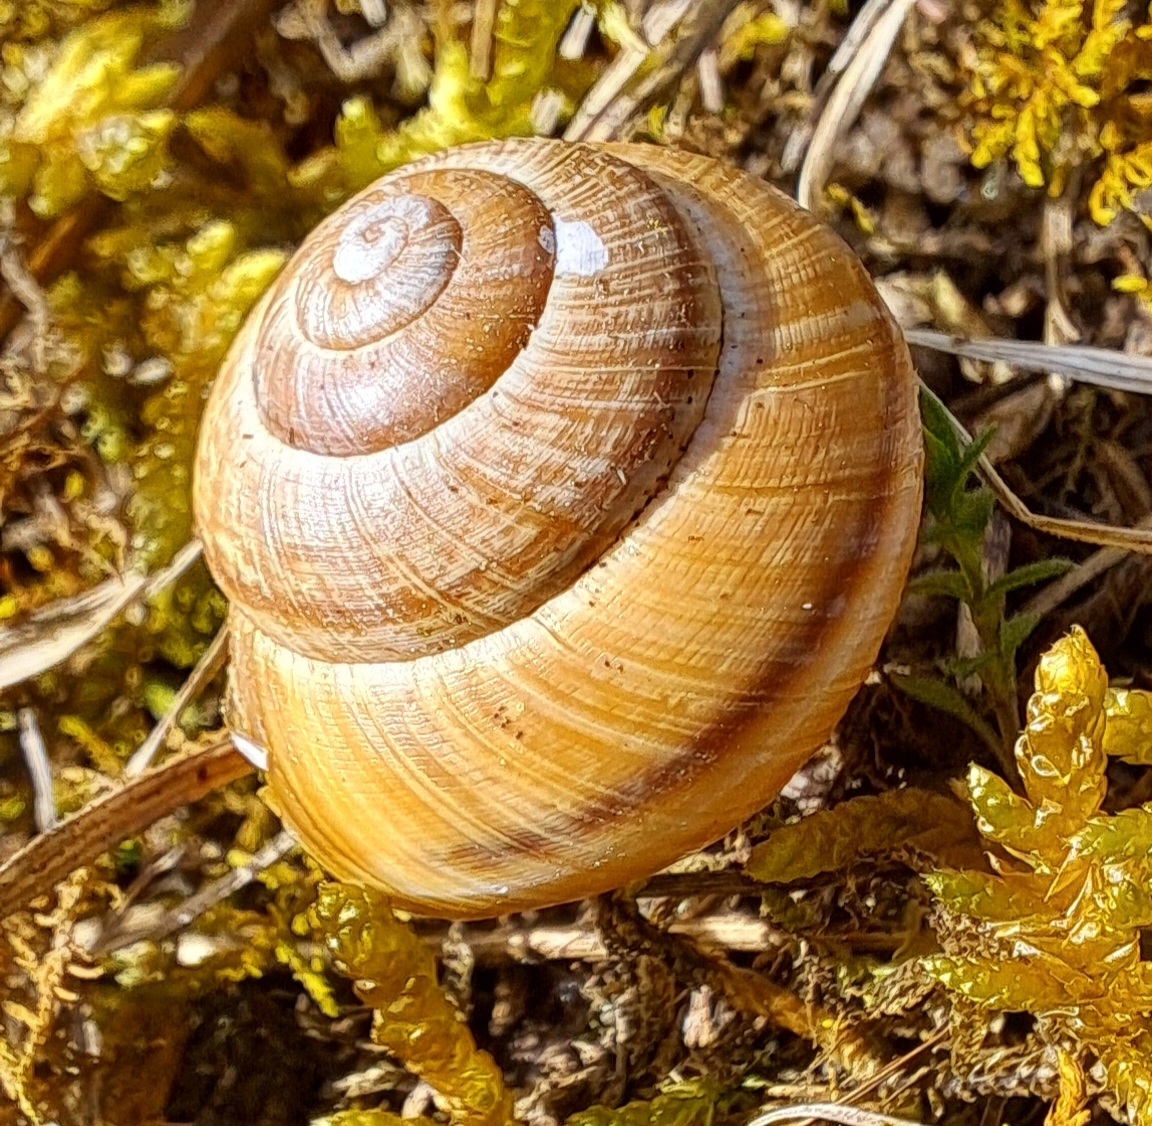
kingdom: Animalia
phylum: Mollusca
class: Gastropoda
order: Stylommatophora
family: Helicidae
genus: Arianta
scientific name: Arianta arbustorum
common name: Copse snail
